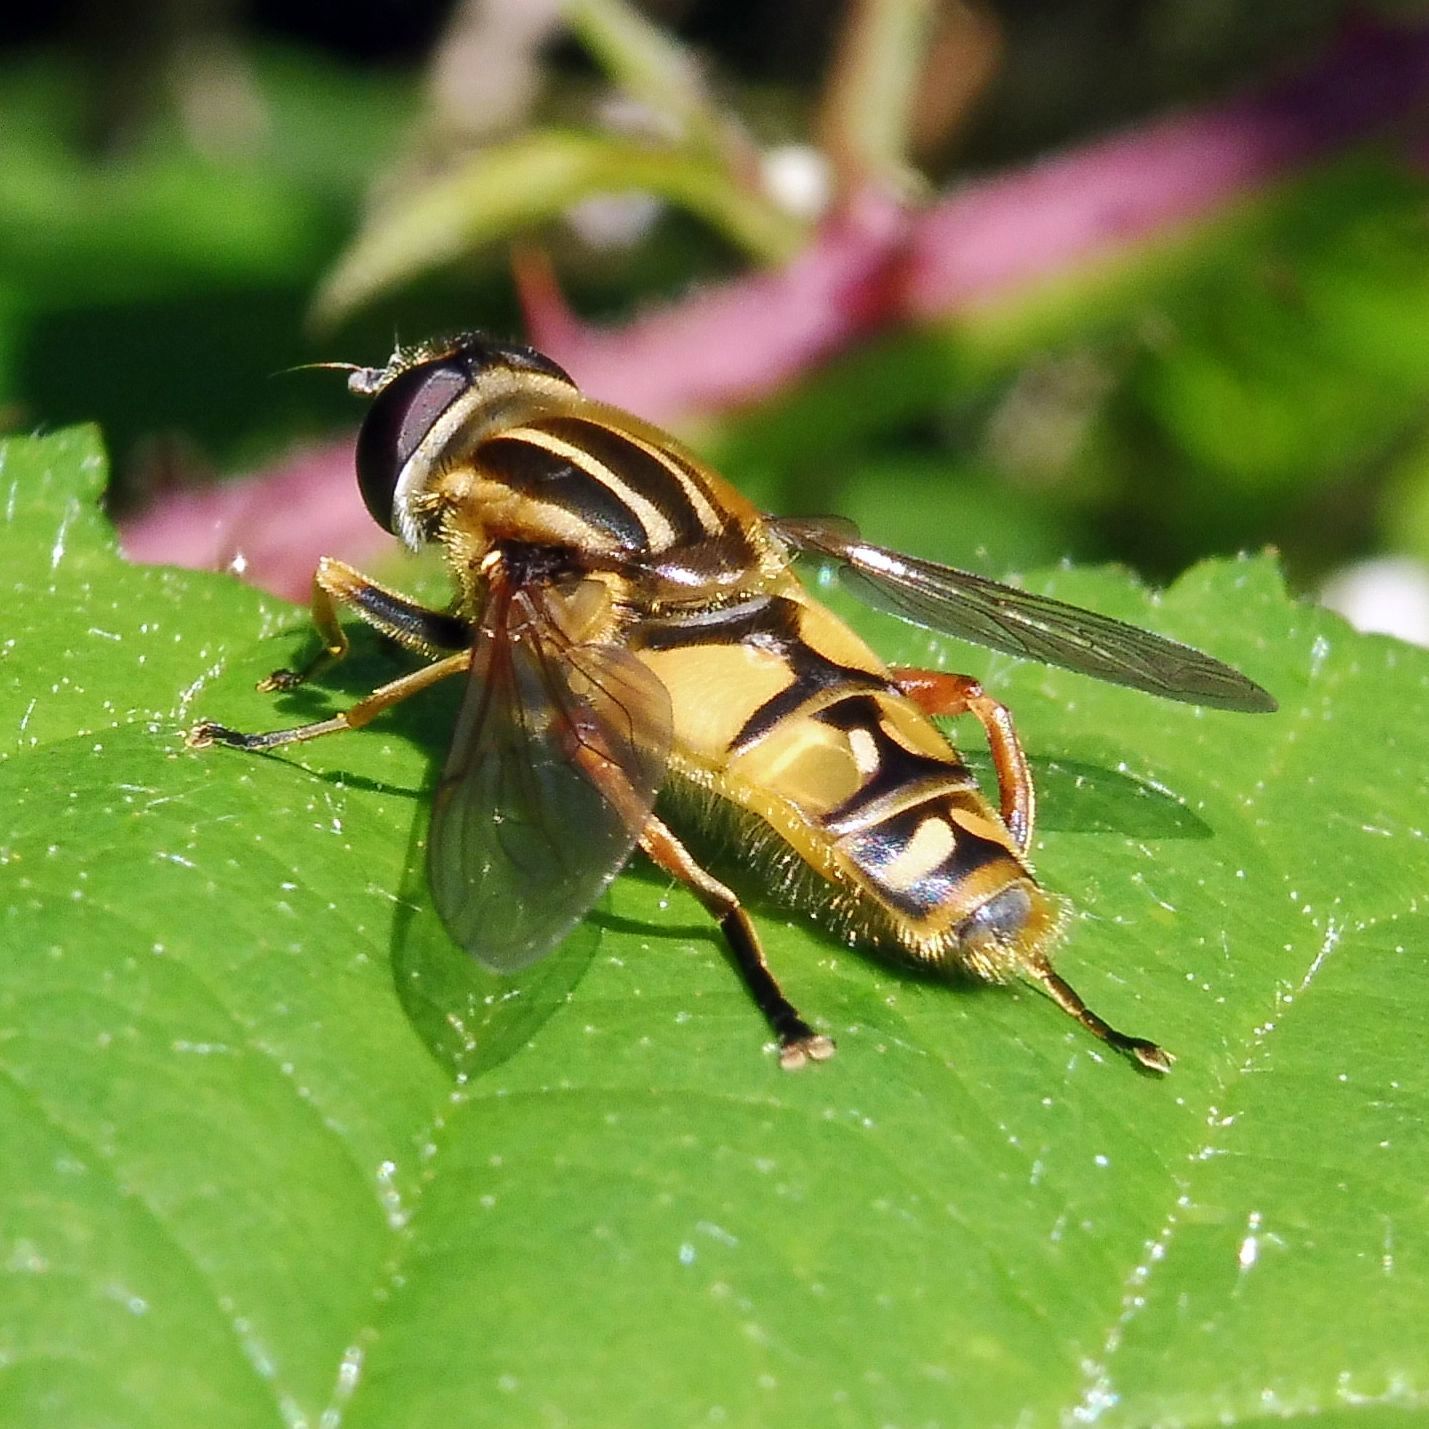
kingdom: Animalia
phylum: Arthropoda
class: Insecta
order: Diptera
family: Syrphidae
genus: Helophilus
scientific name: Helophilus pendulus
